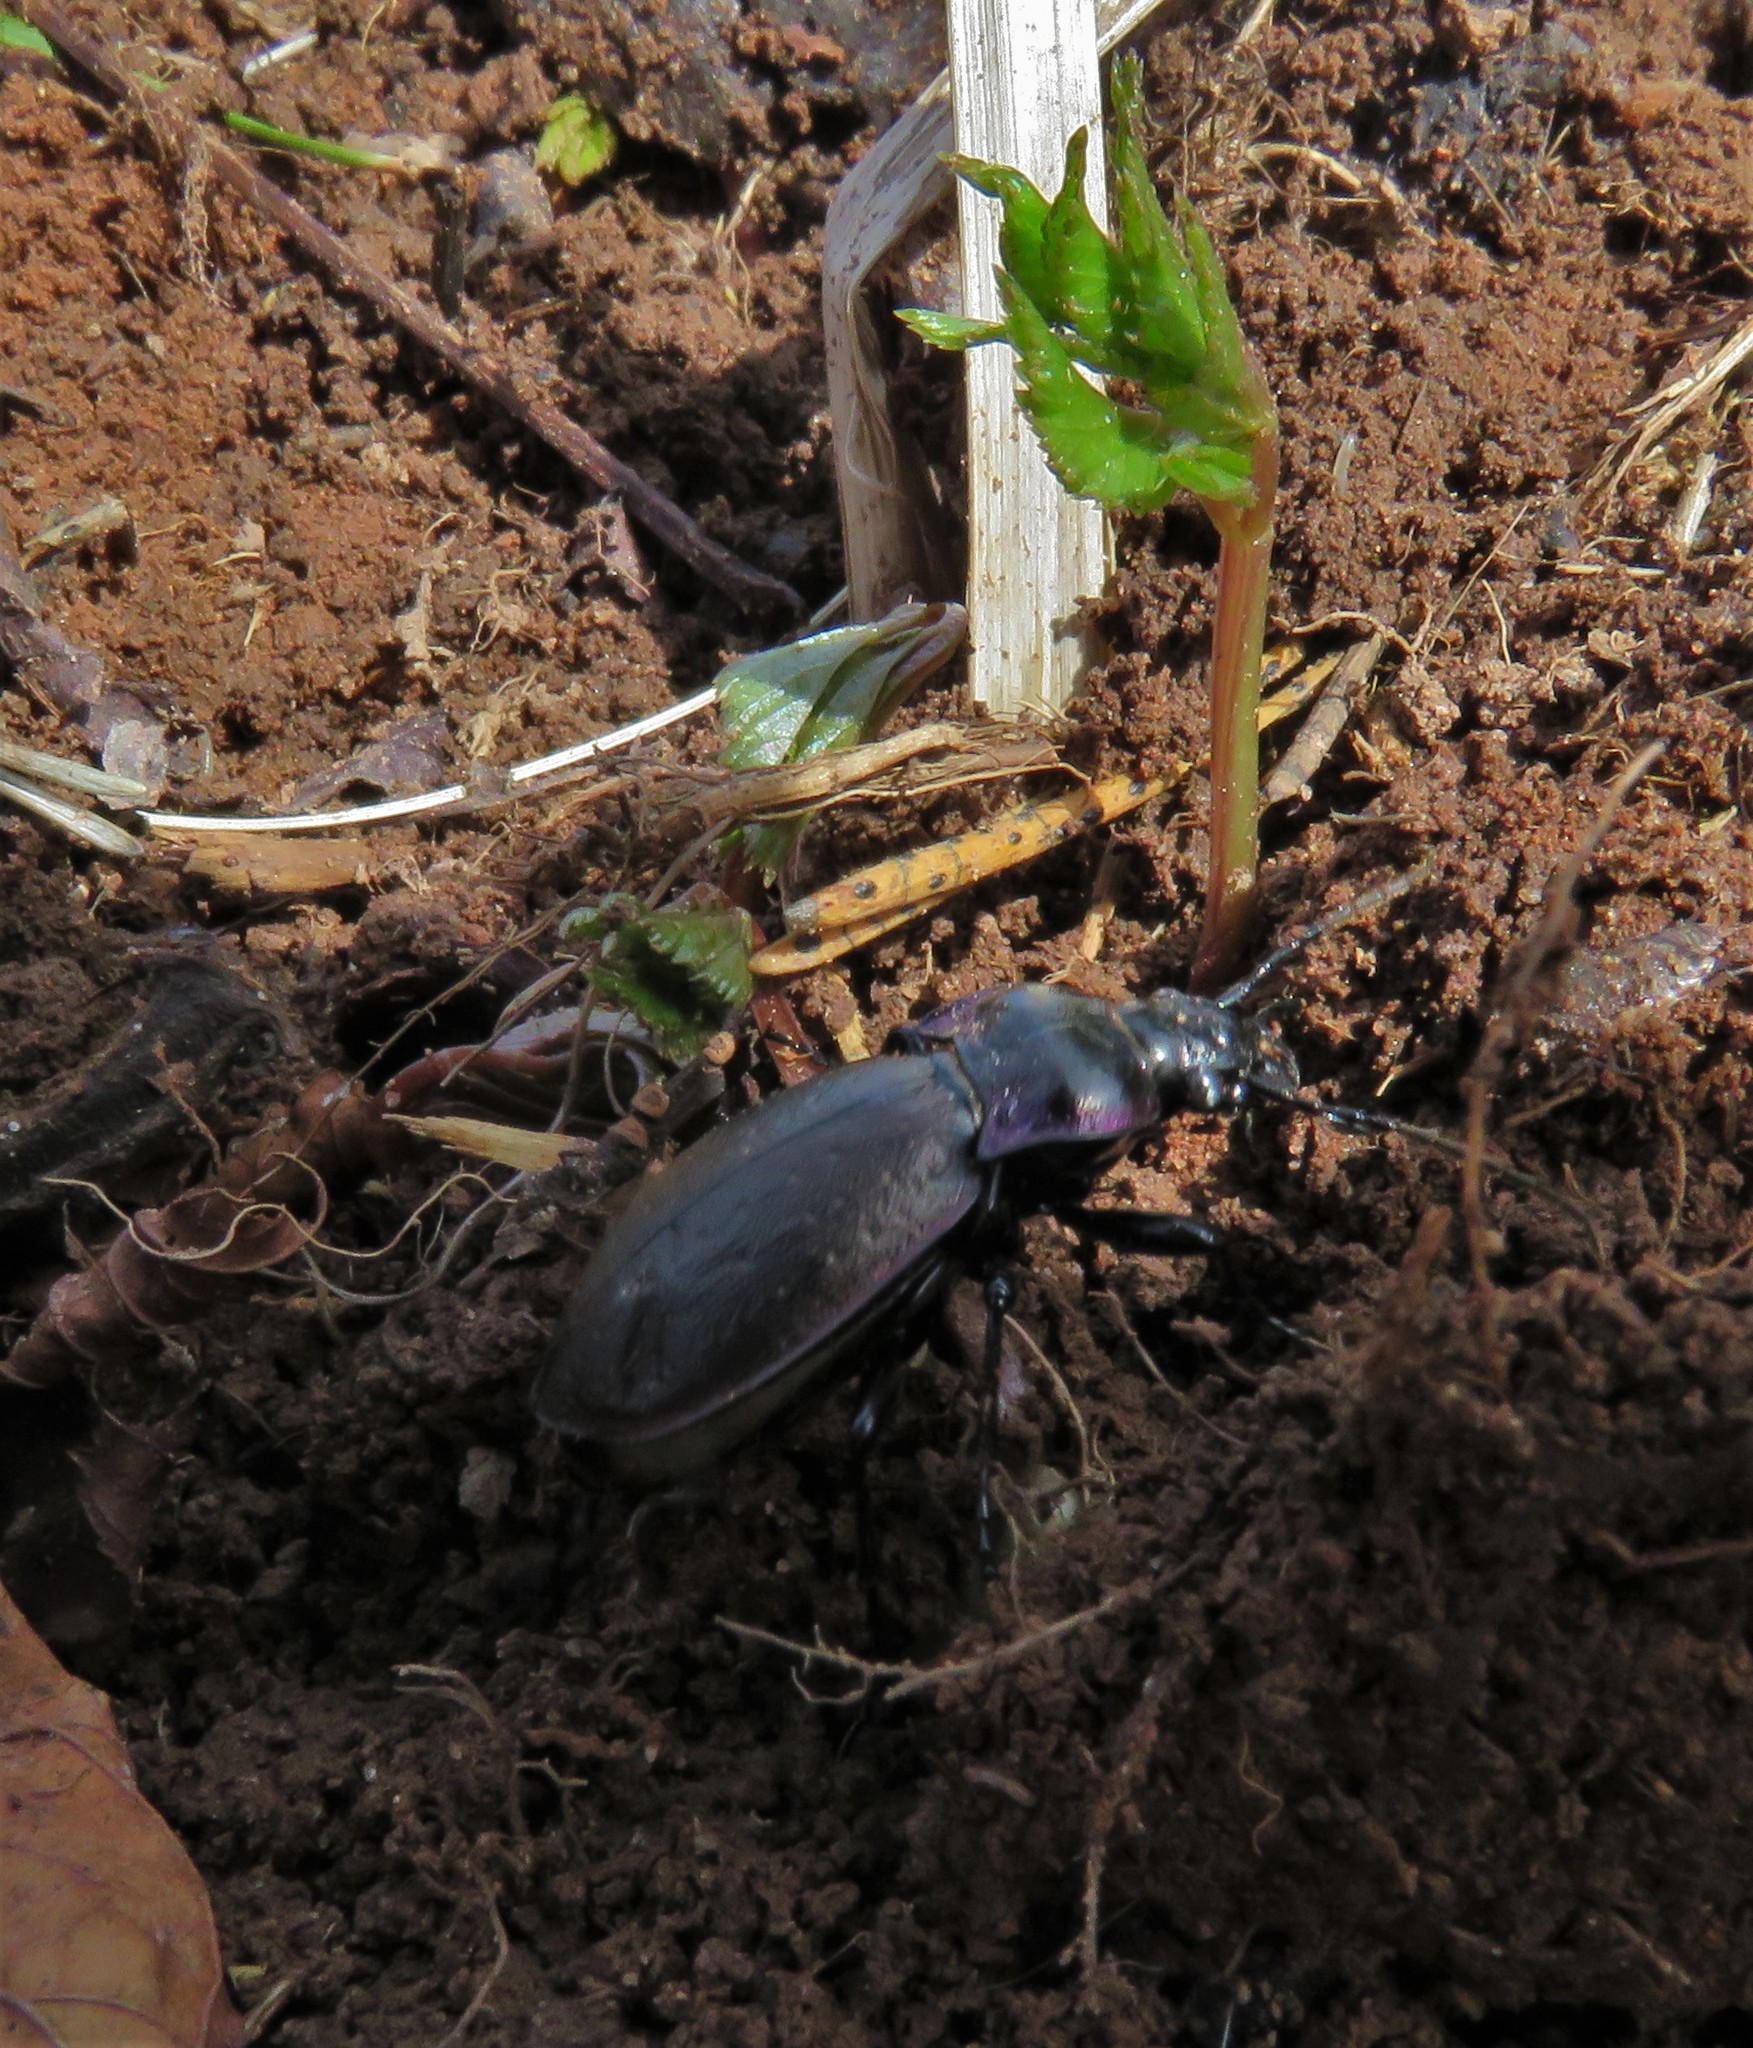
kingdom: Animalia
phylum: Arthropoda
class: Insecta
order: Coleoptera
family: Carabidae
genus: Carabus
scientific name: Carabus nemoralis
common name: European ground beetle
